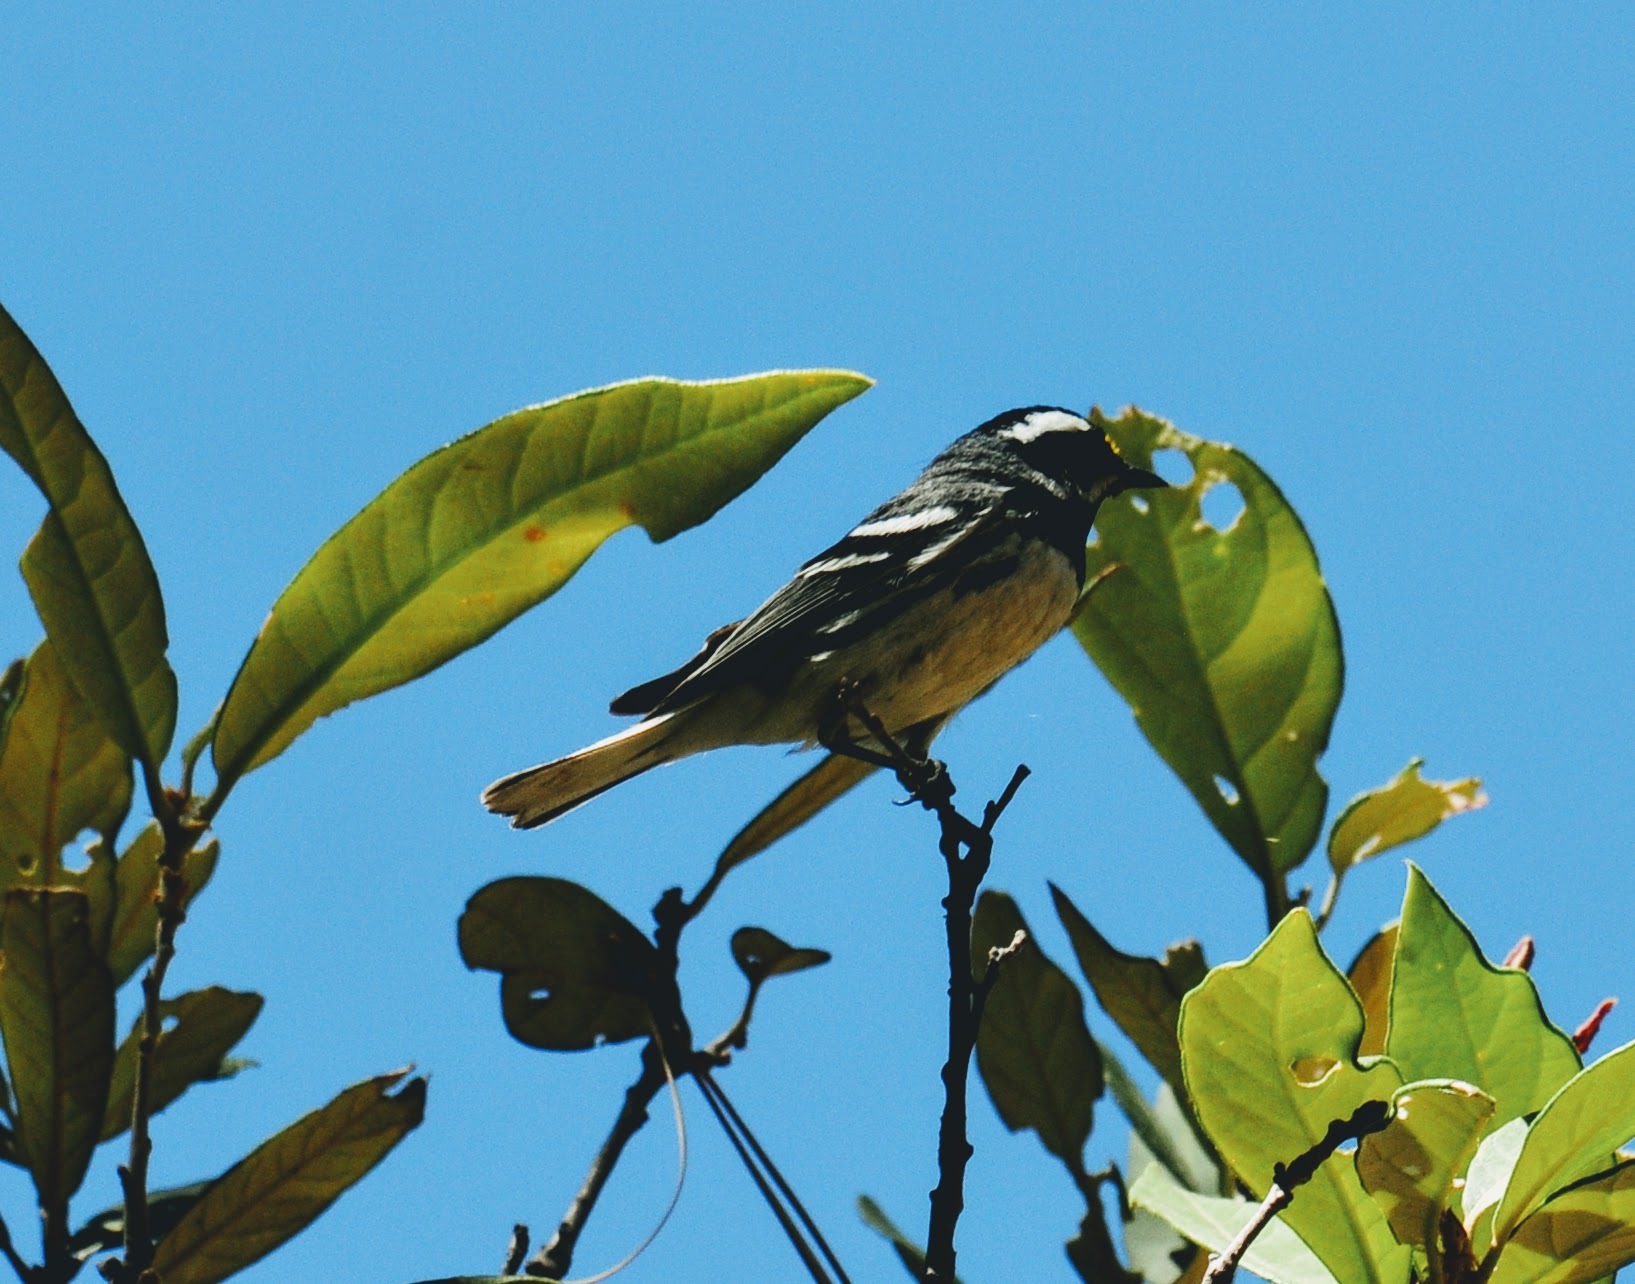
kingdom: Animalia
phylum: Chordata
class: Aves
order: Passeriformes
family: Parulidae
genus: Setophaga
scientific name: Setophaga nigrescens
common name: Black-throated gray warbler
